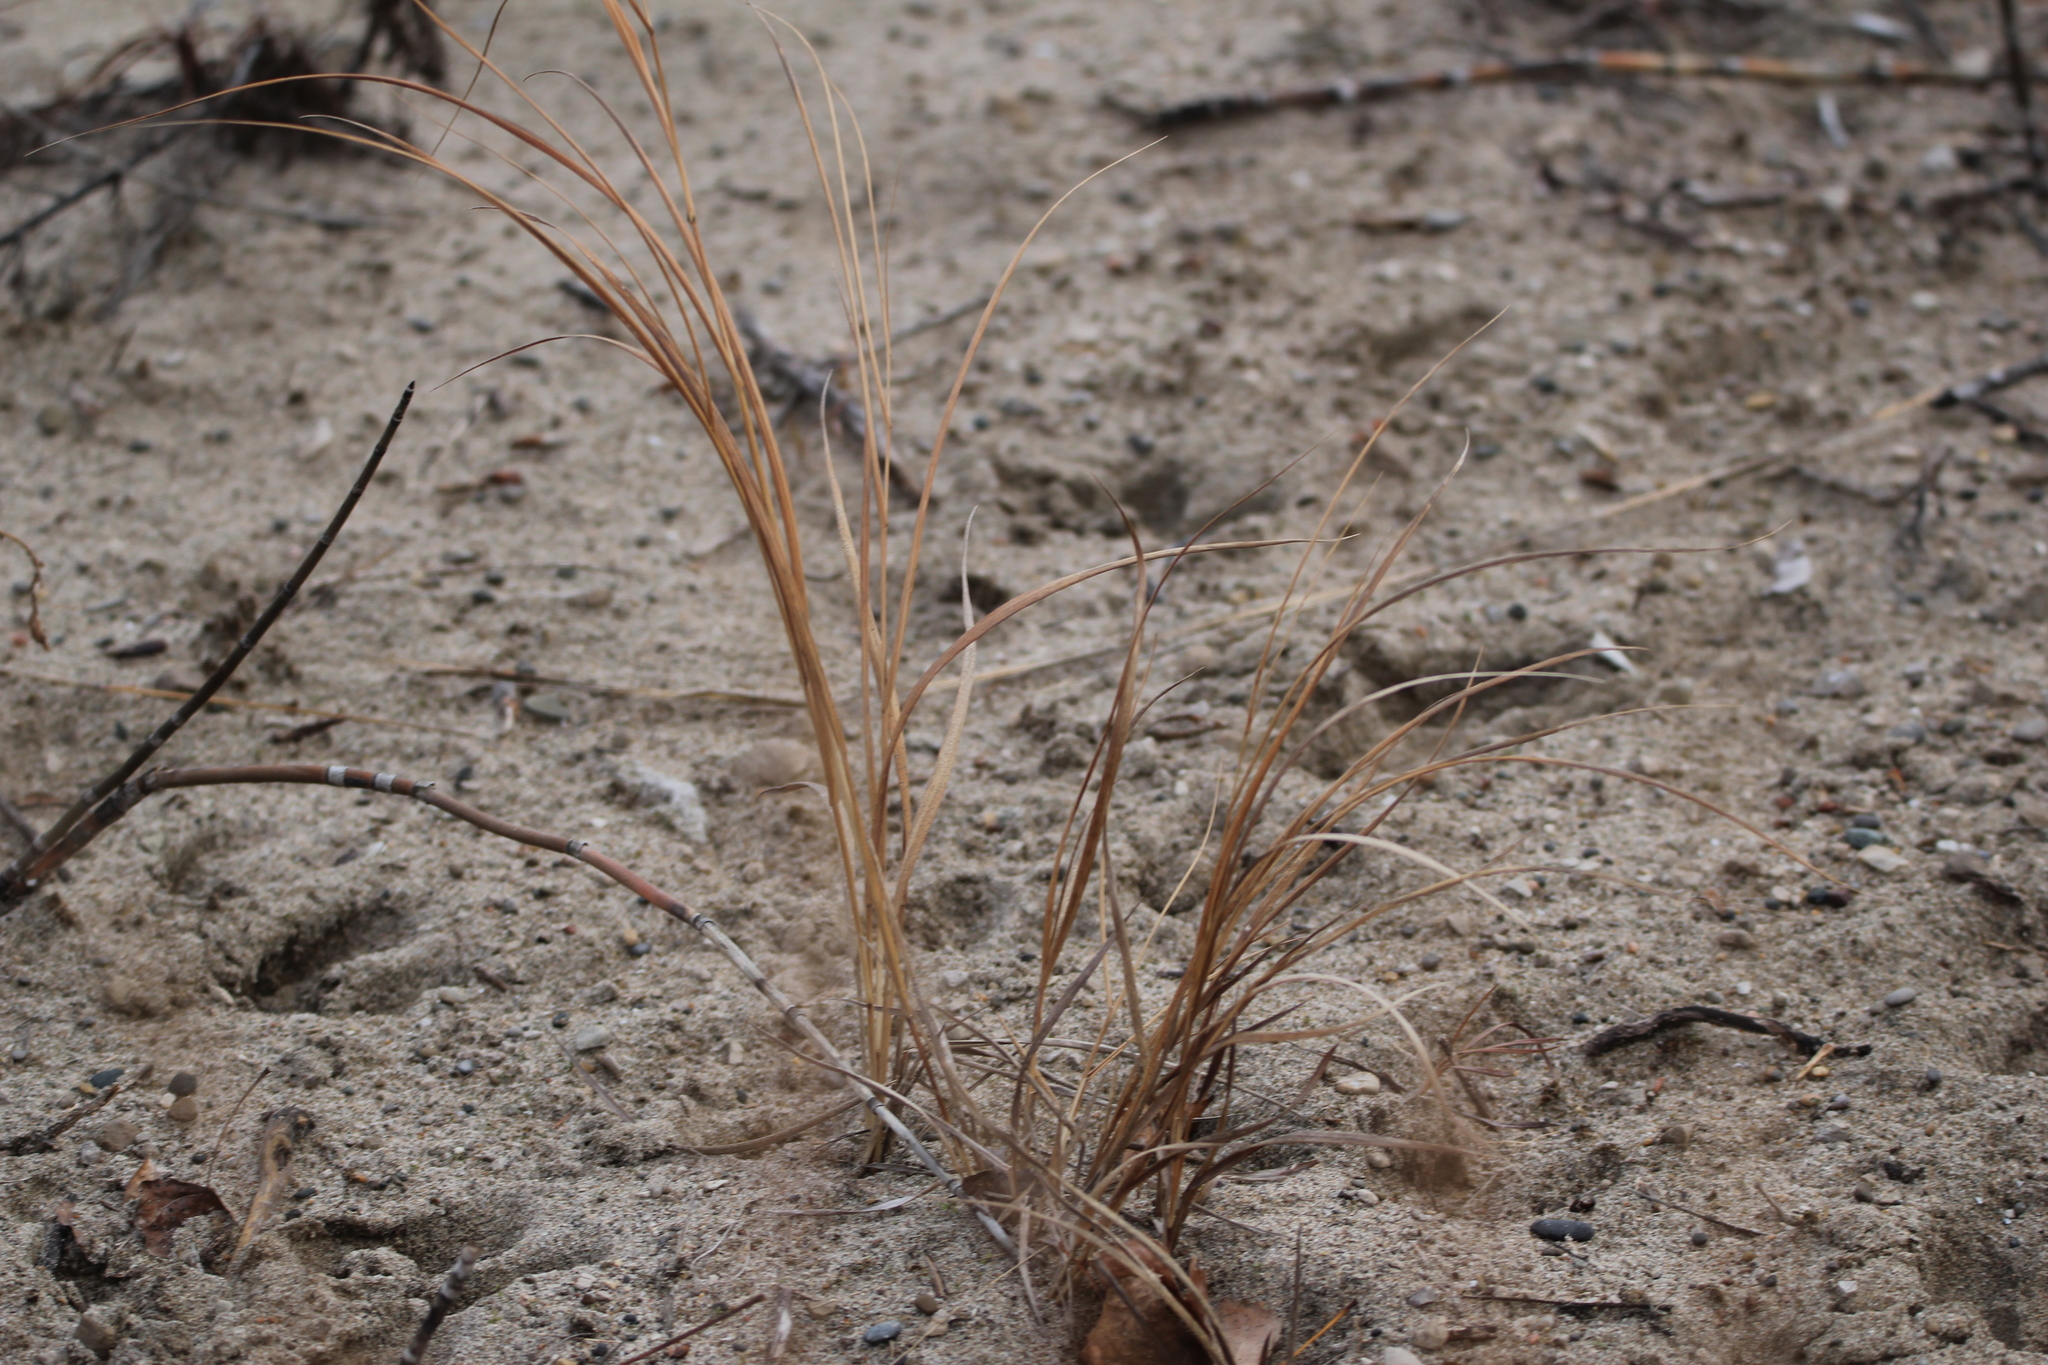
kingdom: Plantae
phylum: Tracheophyta
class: Liliopsida
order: Poales
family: Poaceae
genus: Calamagrostis
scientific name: Calamagrostis breviligulata
